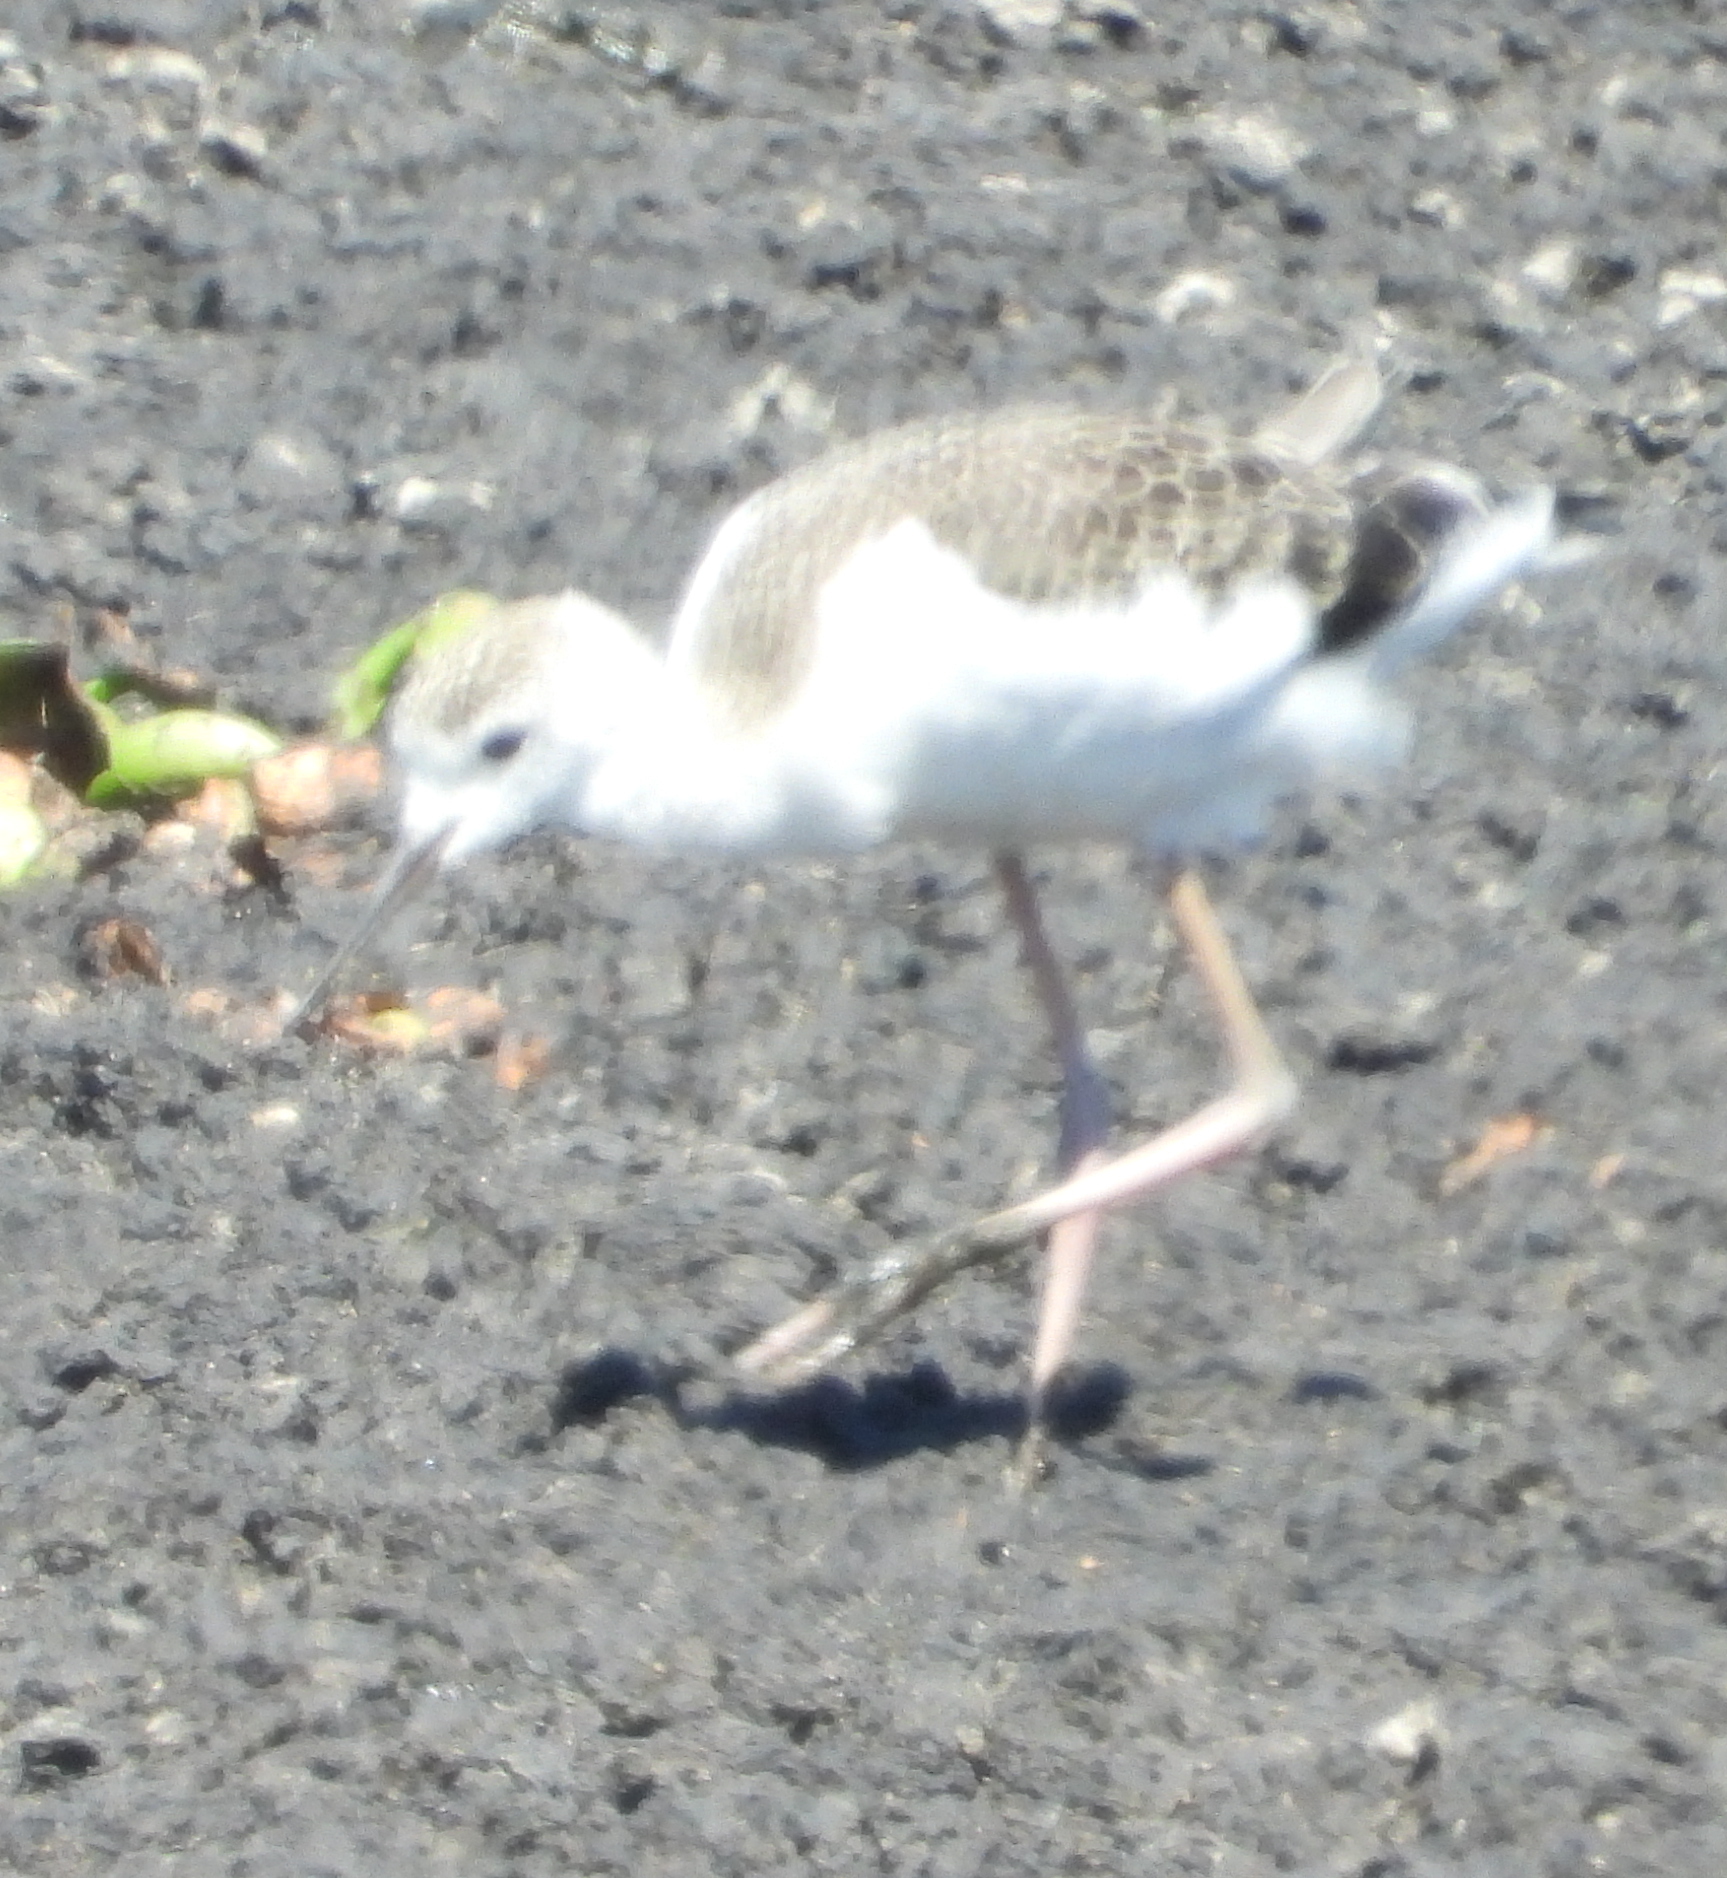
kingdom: Animalia
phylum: Chordata
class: Aves
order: Charadriiformes
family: Recurvirostridae
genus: Himantopus
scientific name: Himantopus himantopus
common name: Black-winged stilt
